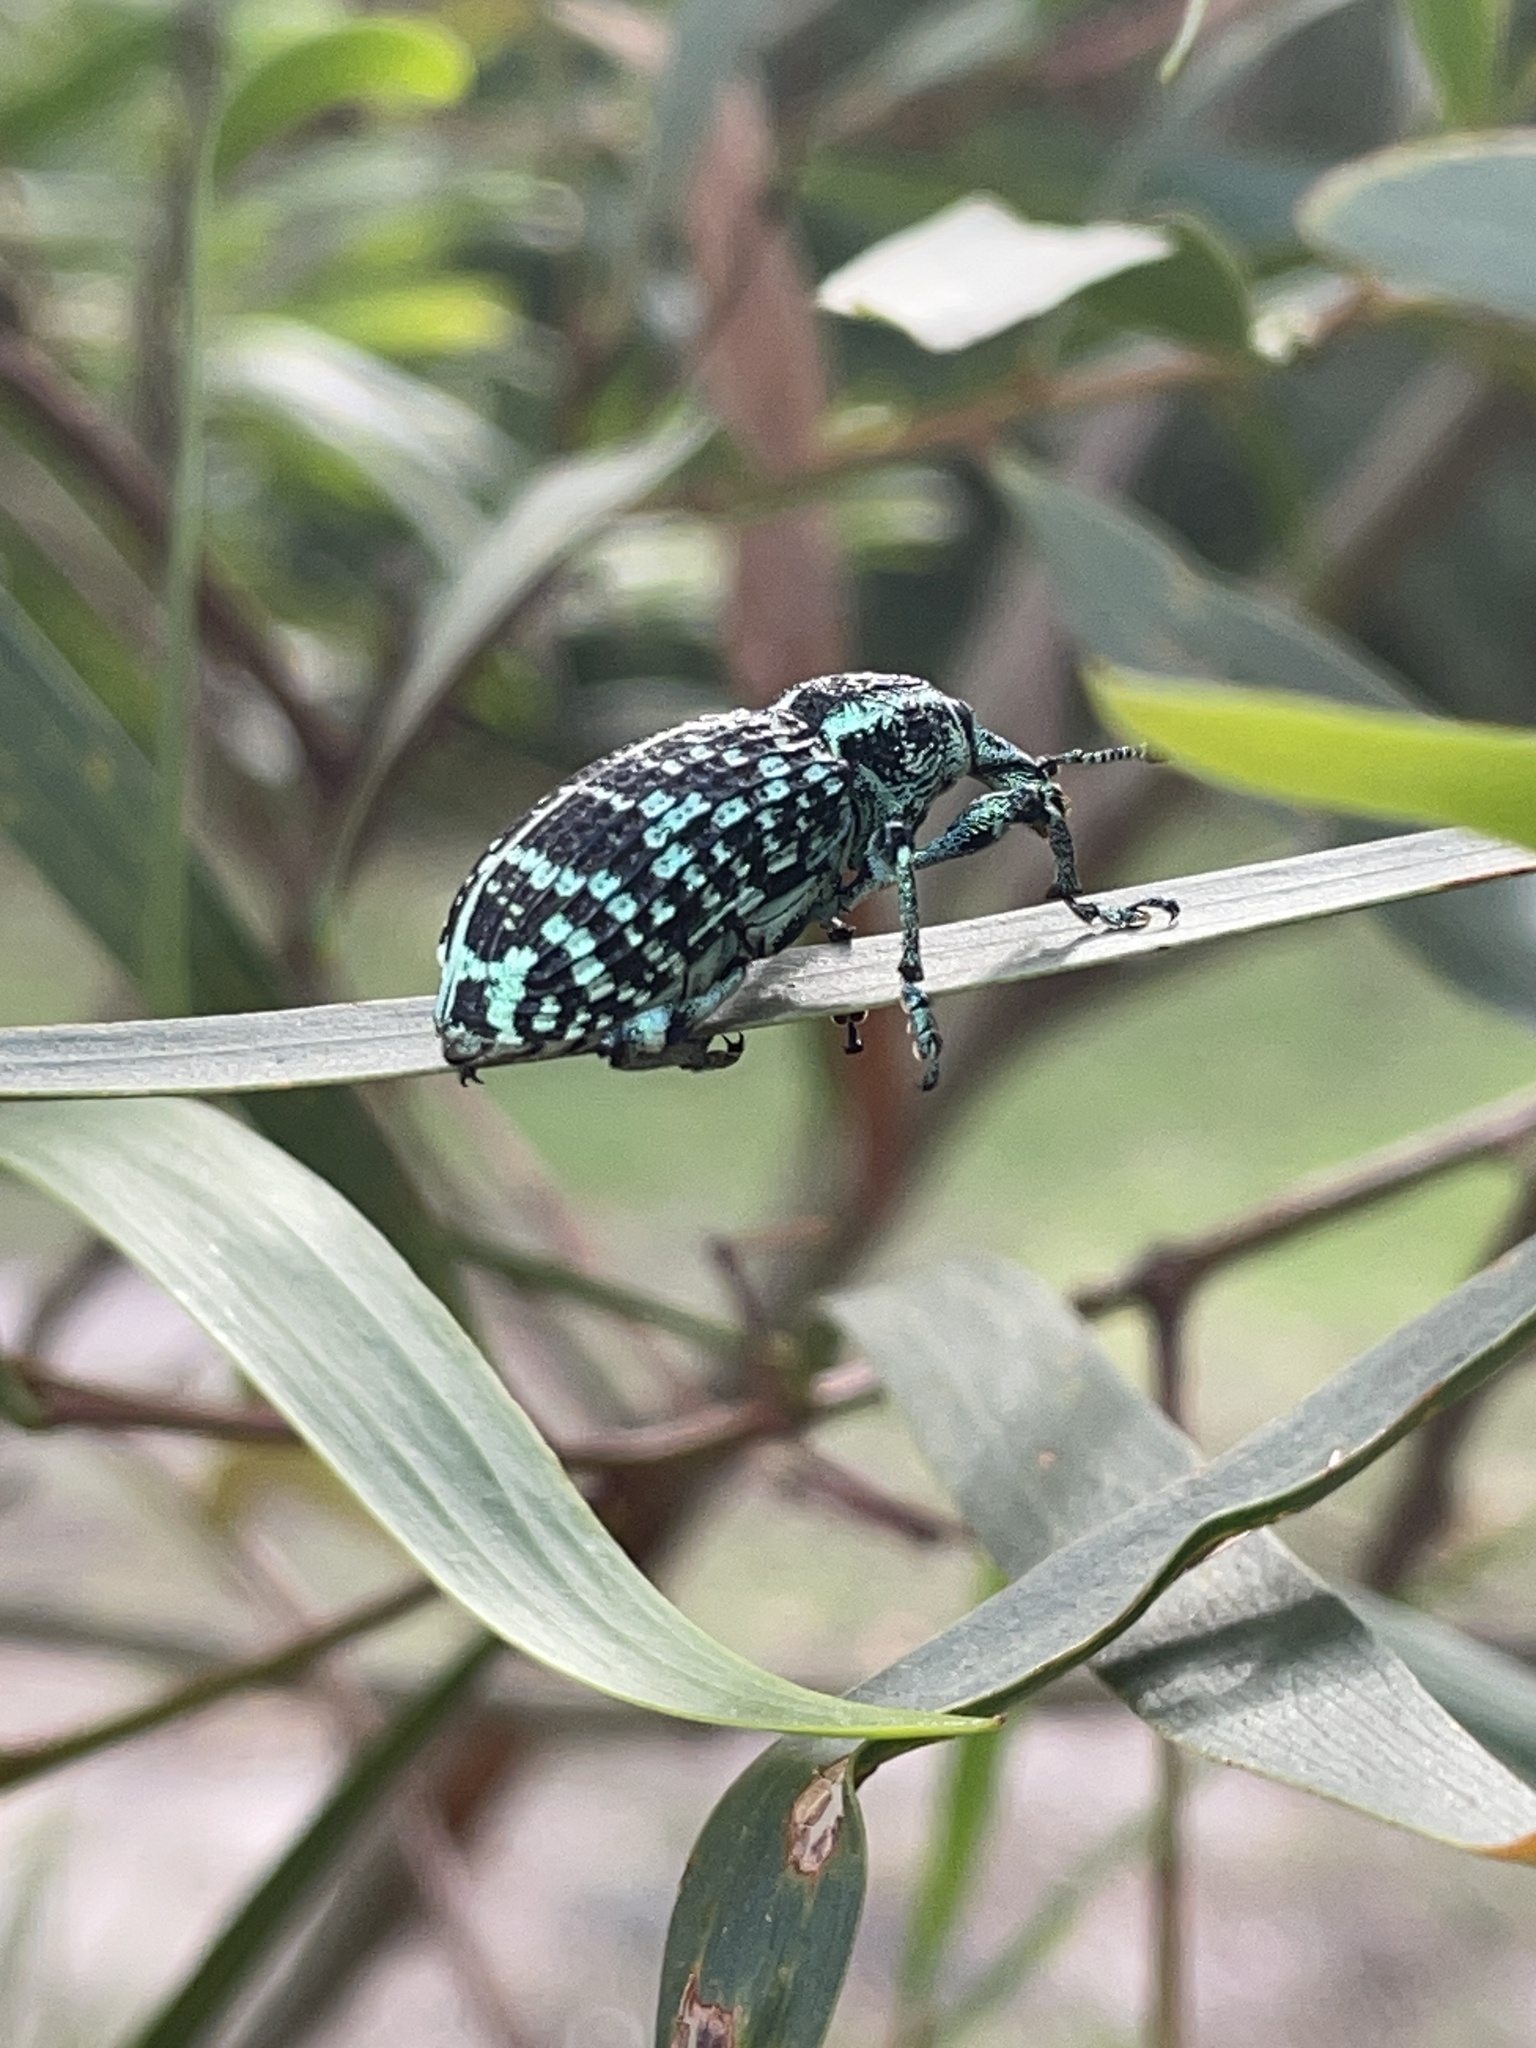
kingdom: Animalia
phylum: Arthropoda
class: Insecta
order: Coleoptera
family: Curculionidae
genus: Chrysolopus
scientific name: Chrysolopus spectabilis
